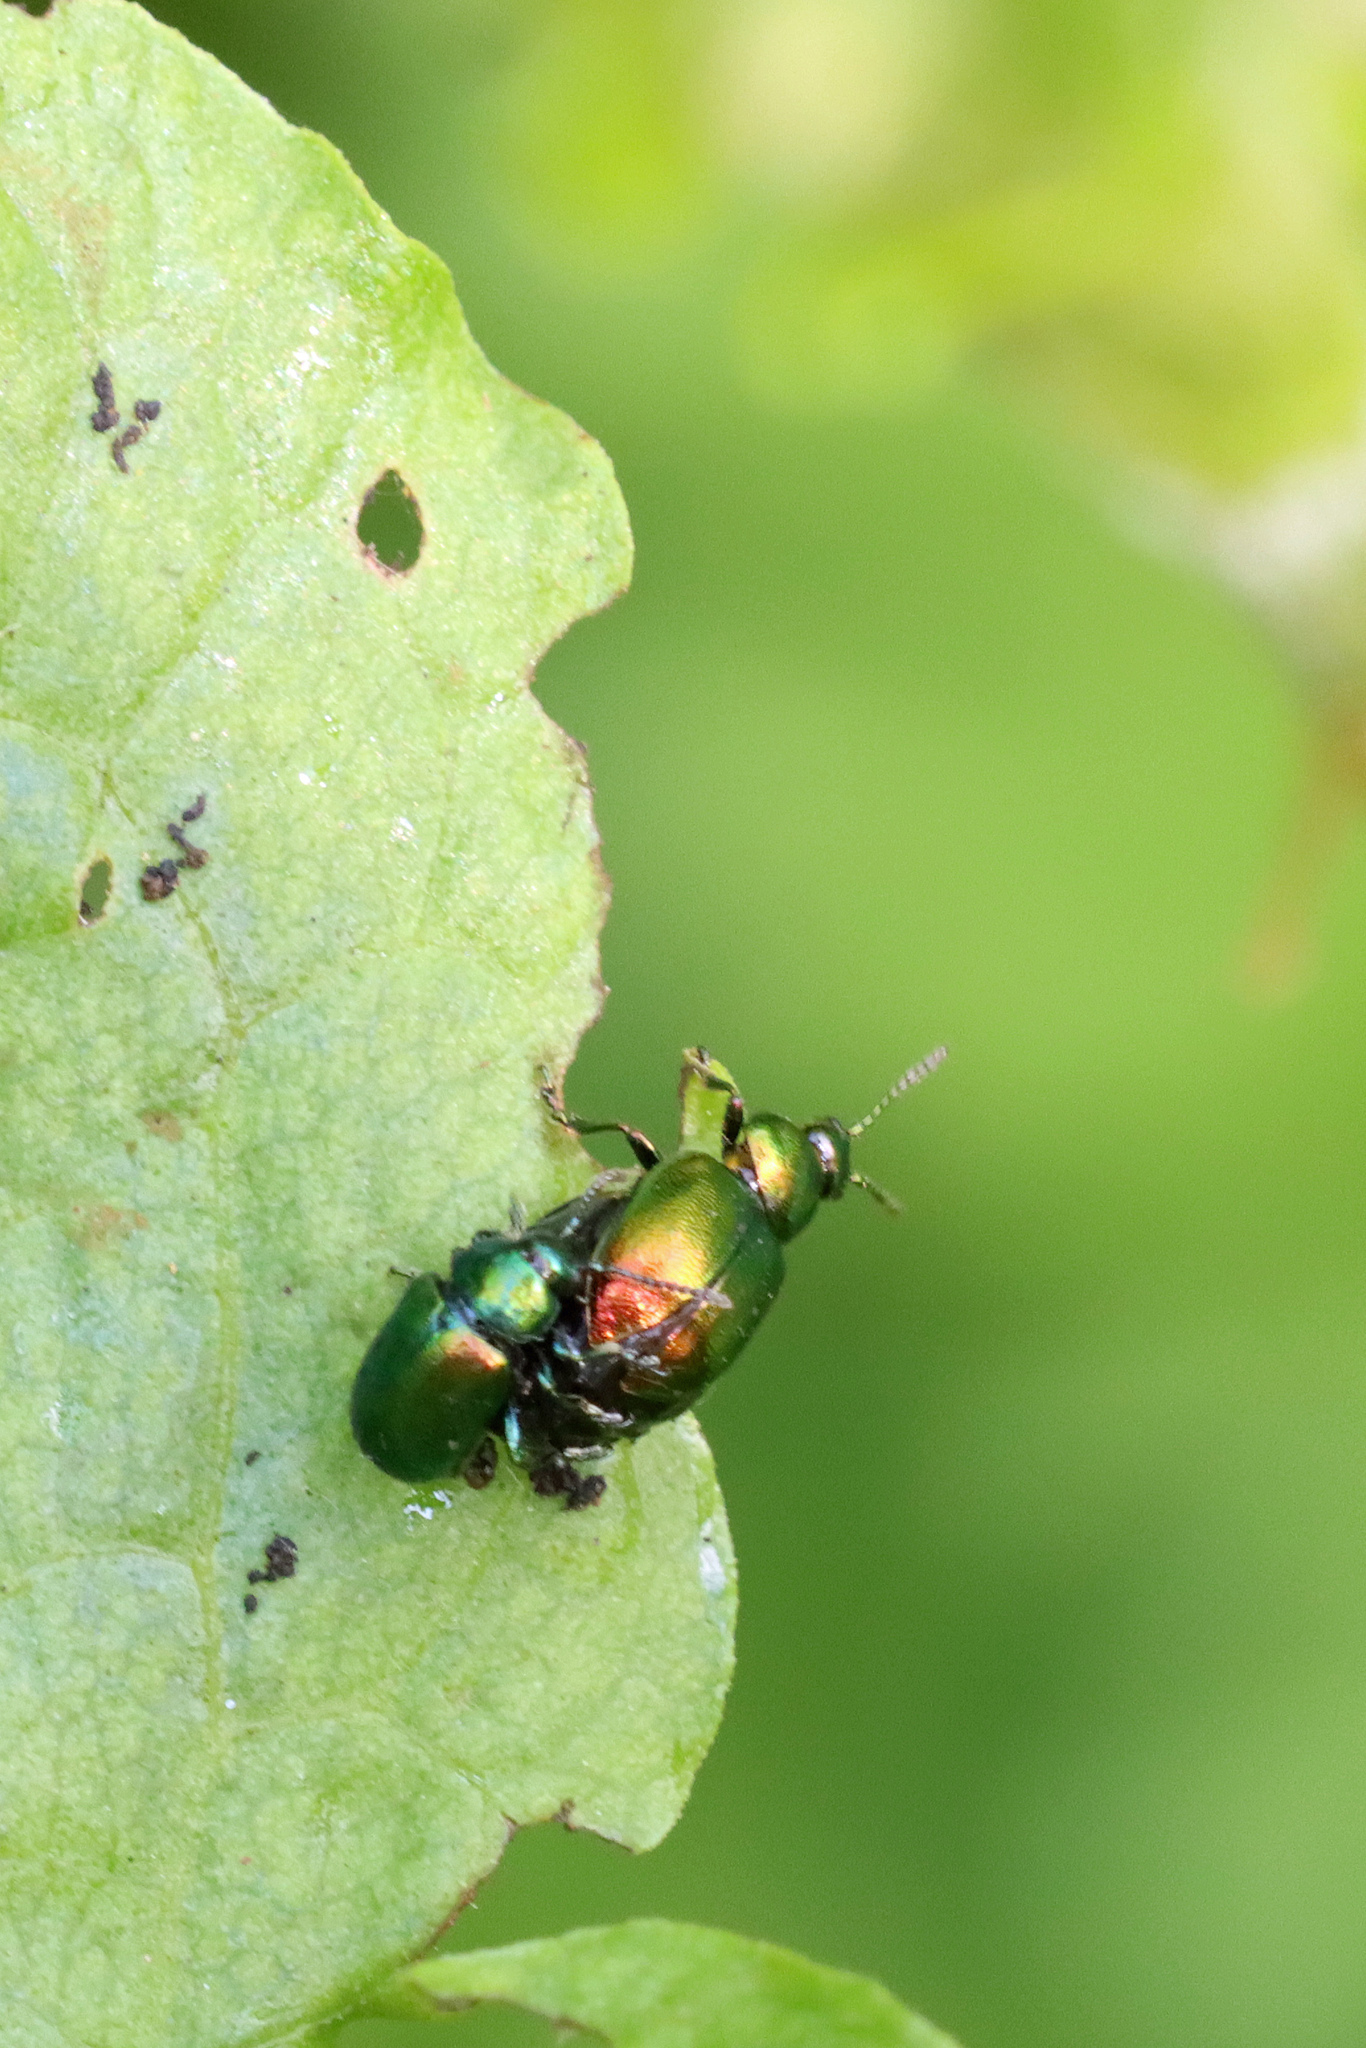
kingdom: Animalia
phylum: Arthropoda
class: Insecta
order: Coleoptera
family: Chrysomelidae
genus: Gastrophysa
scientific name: Gastrophysa viridula
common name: Green dock beetle
